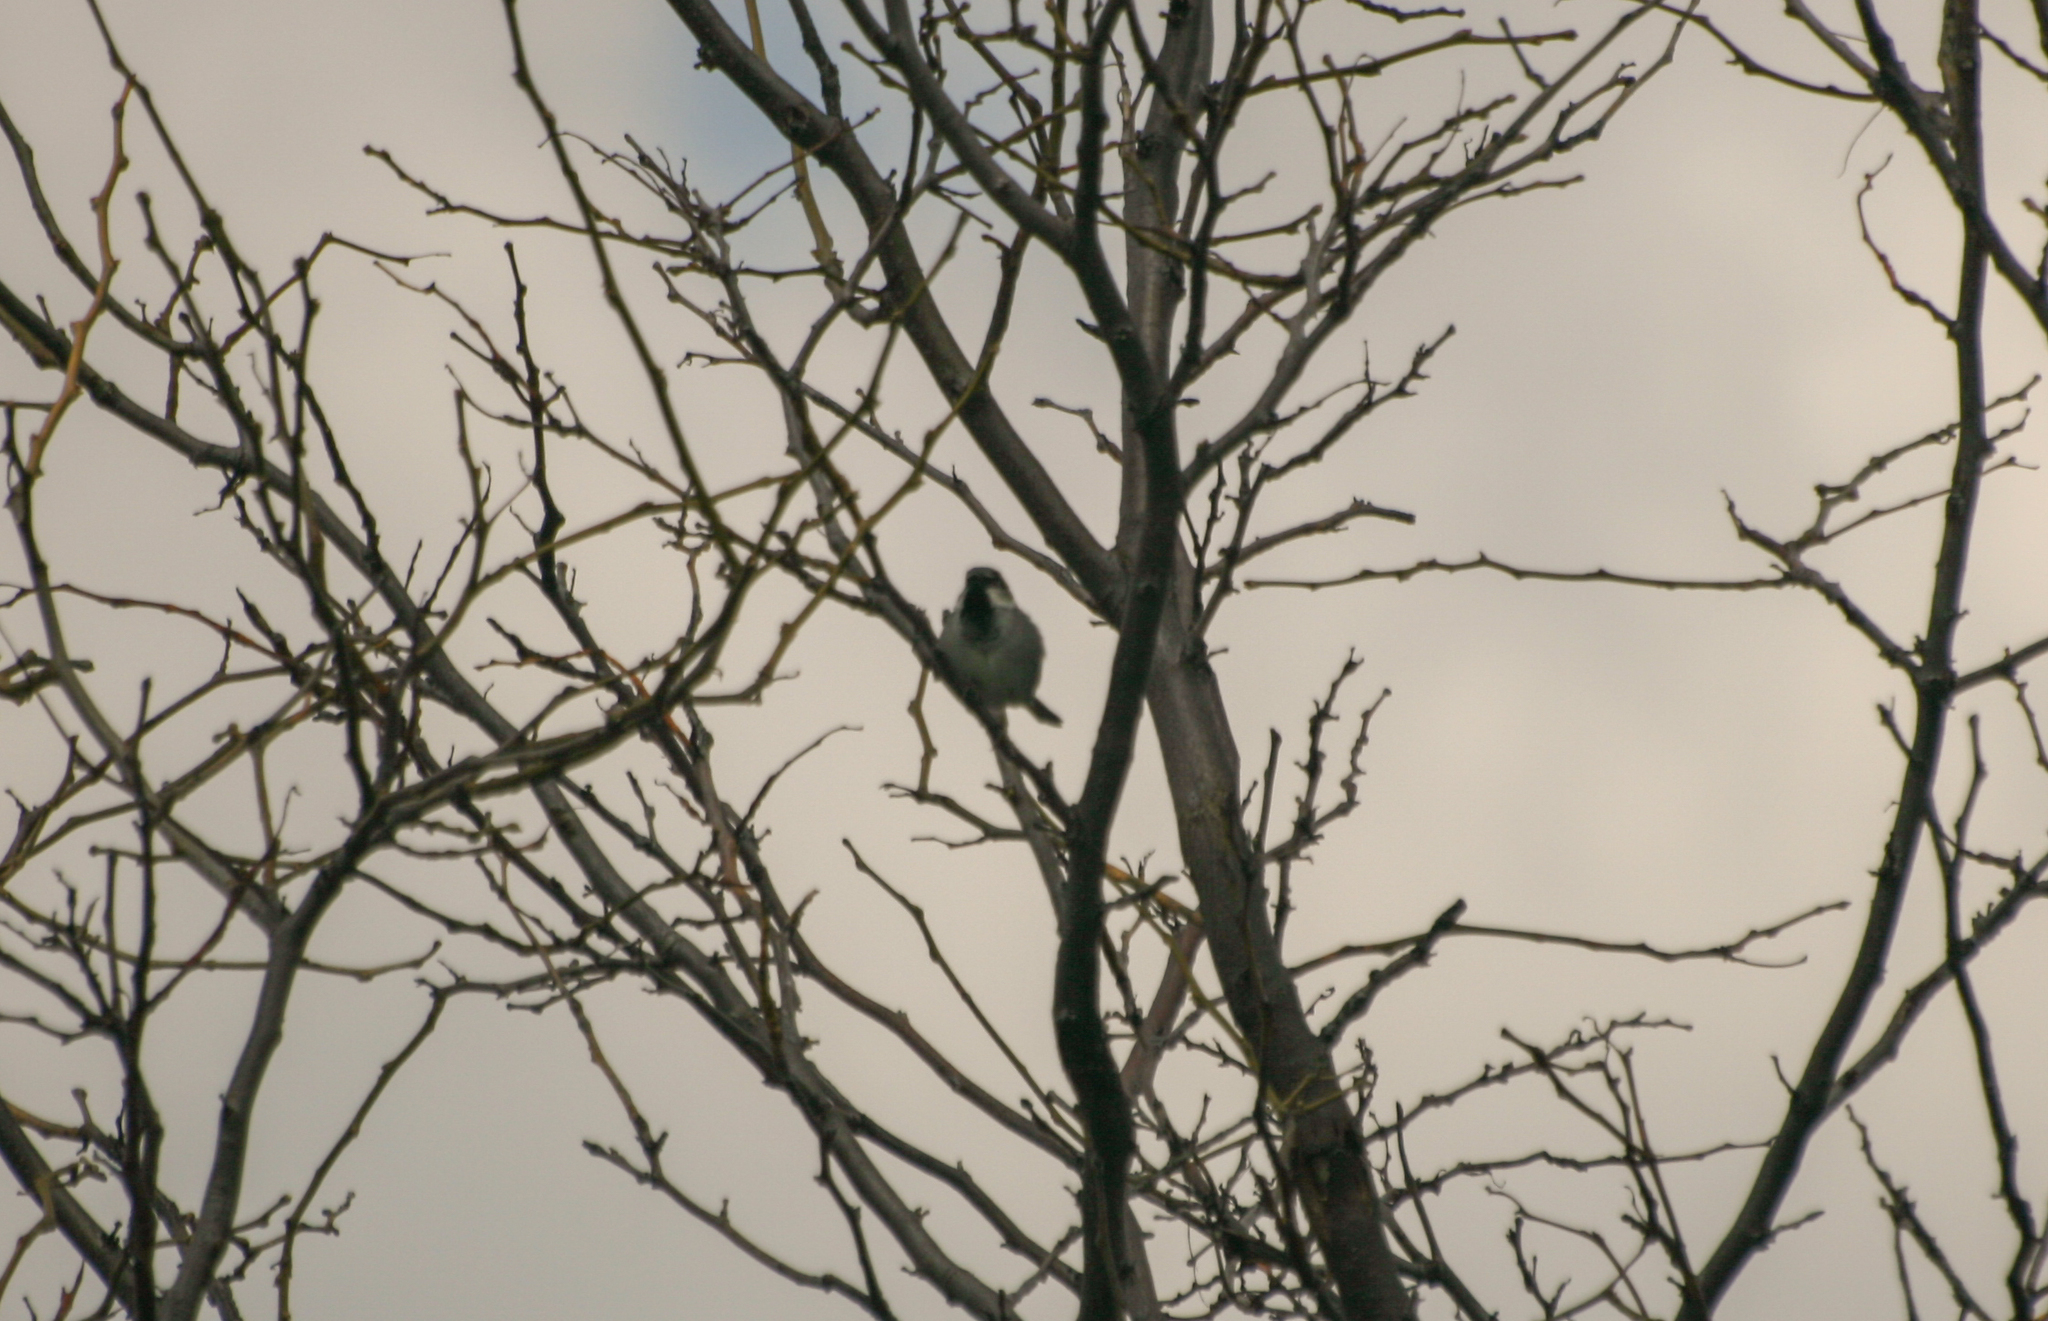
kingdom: Animalia
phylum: Chordata
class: Aves
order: Passeriformes
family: Passeridae
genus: Passer
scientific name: Passer domesticus
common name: House sparrow
